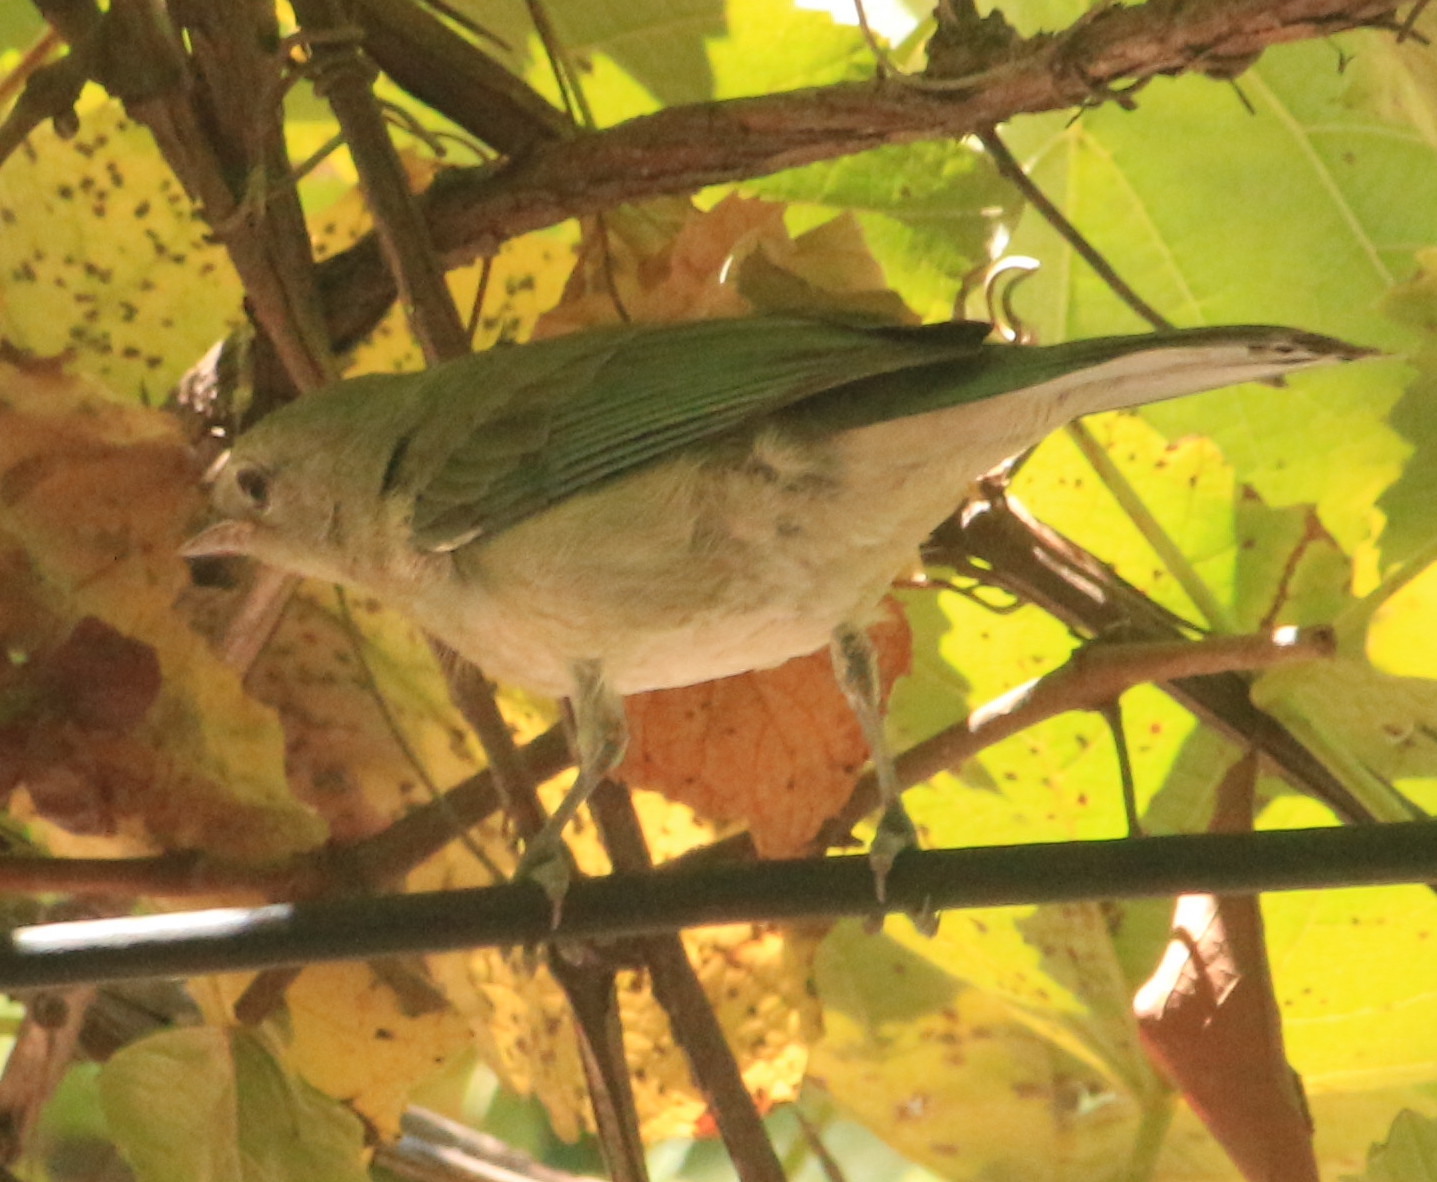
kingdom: Animalia
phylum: Chordata
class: Aves
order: Passeriformes
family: Thraupidae
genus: Thraupis
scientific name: Thraupis sayaca
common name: Sayaca tanager
